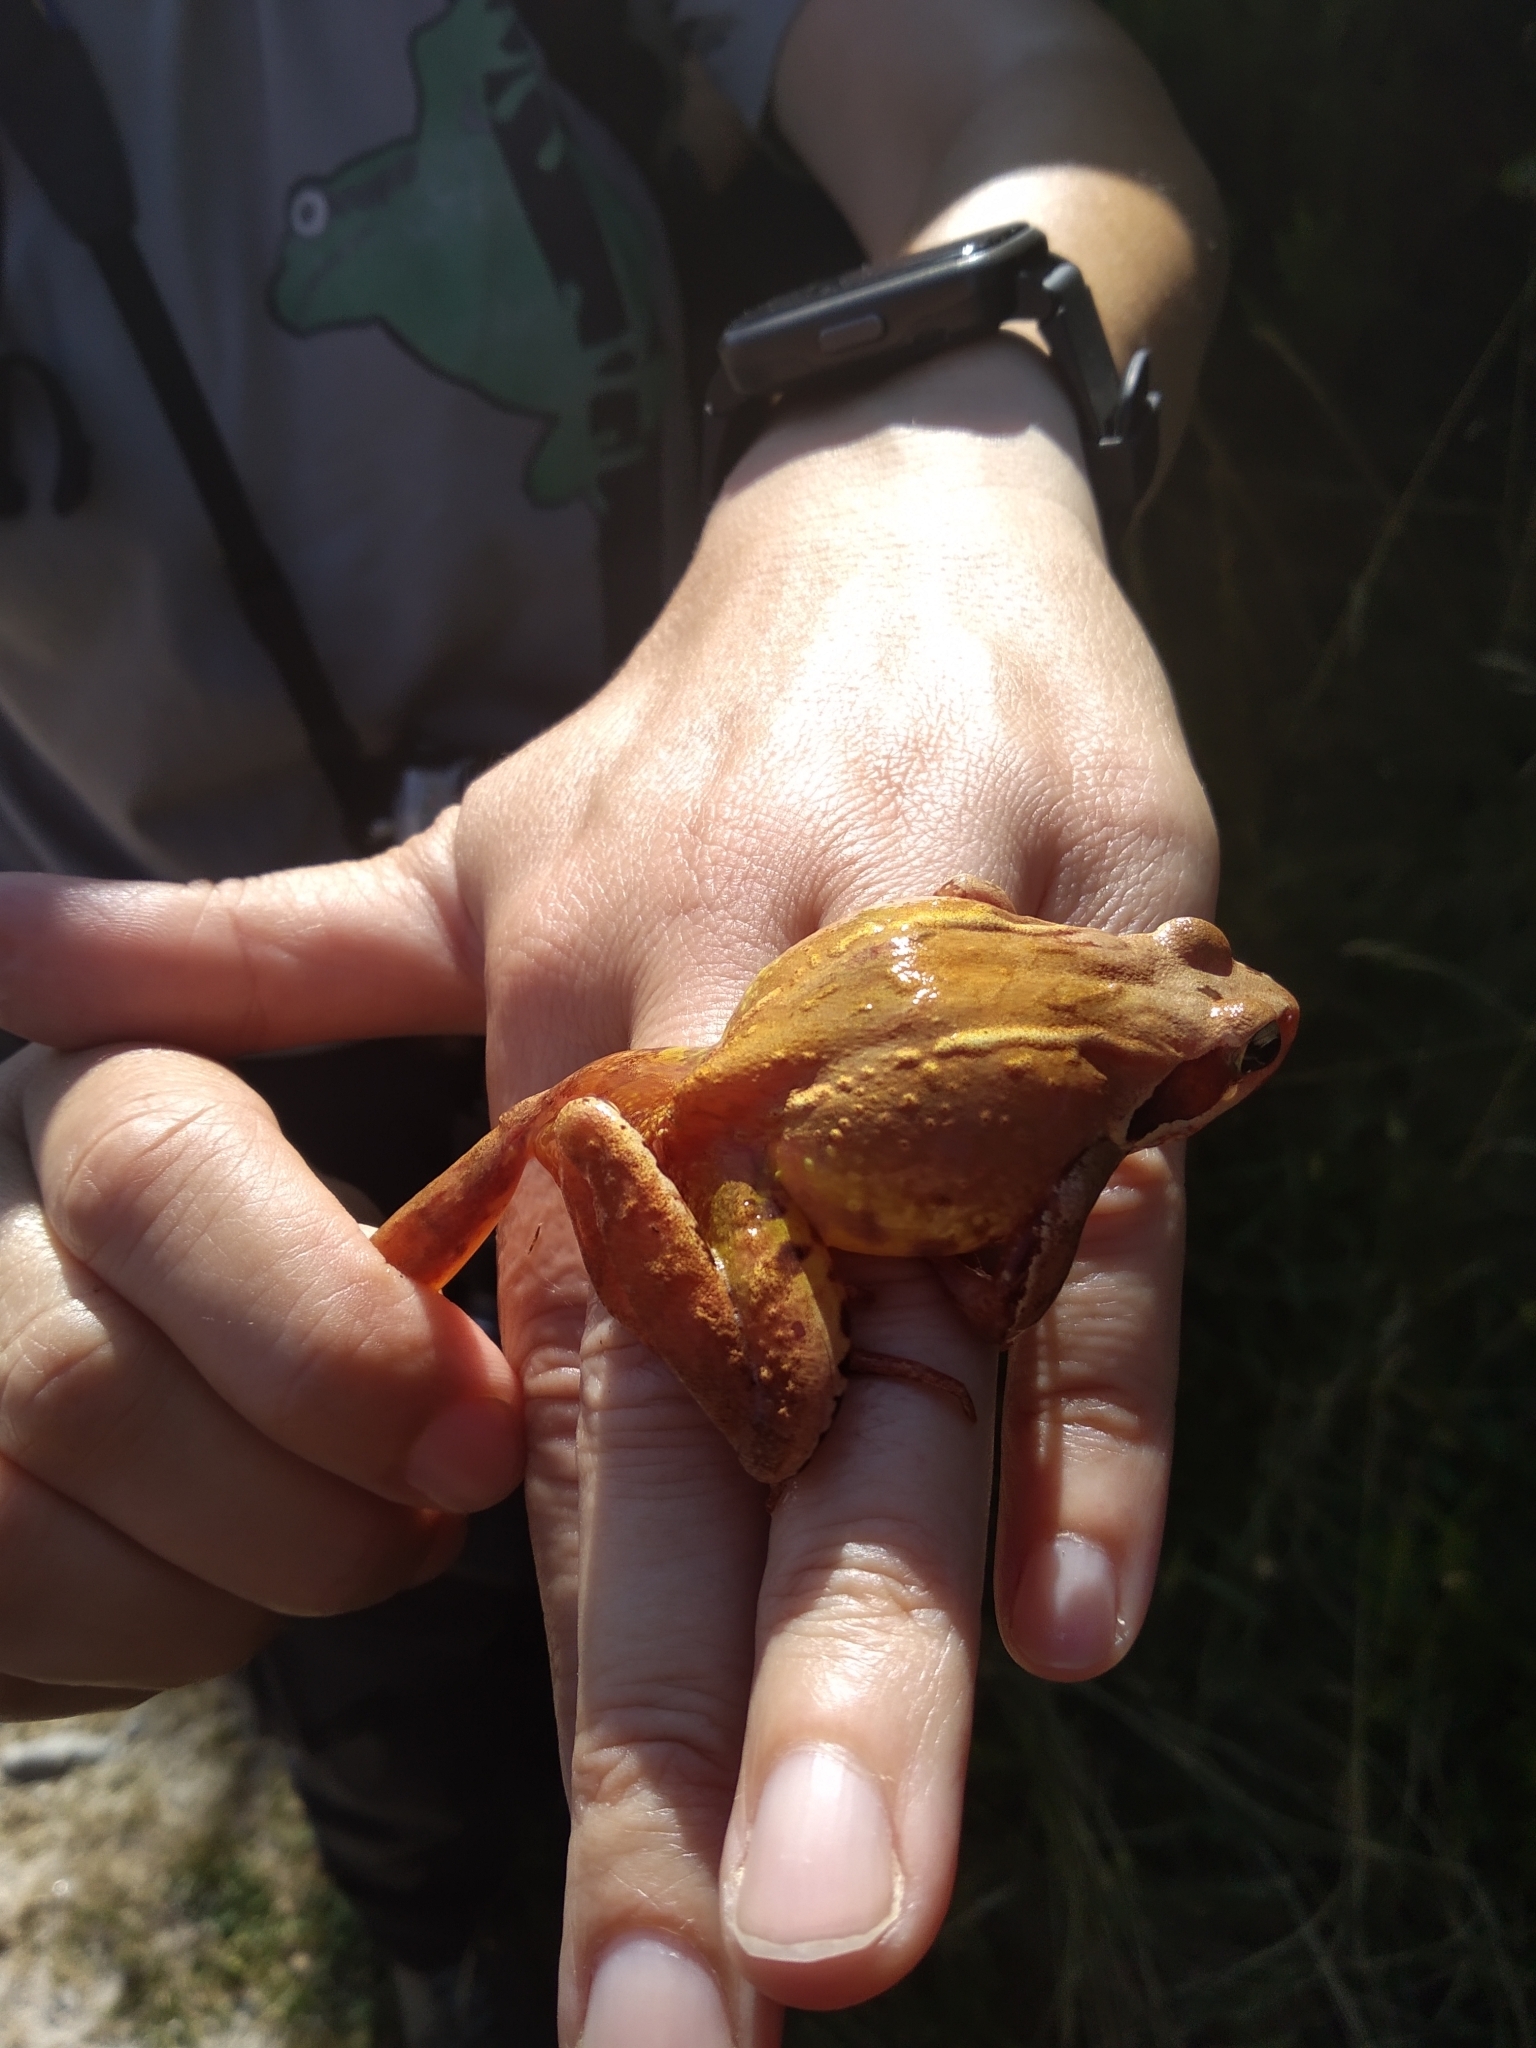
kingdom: Animalia
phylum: Chordata
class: Amphibia
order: Anura
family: Ranidae
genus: Rana
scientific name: Rana temporaria
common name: Common frog
